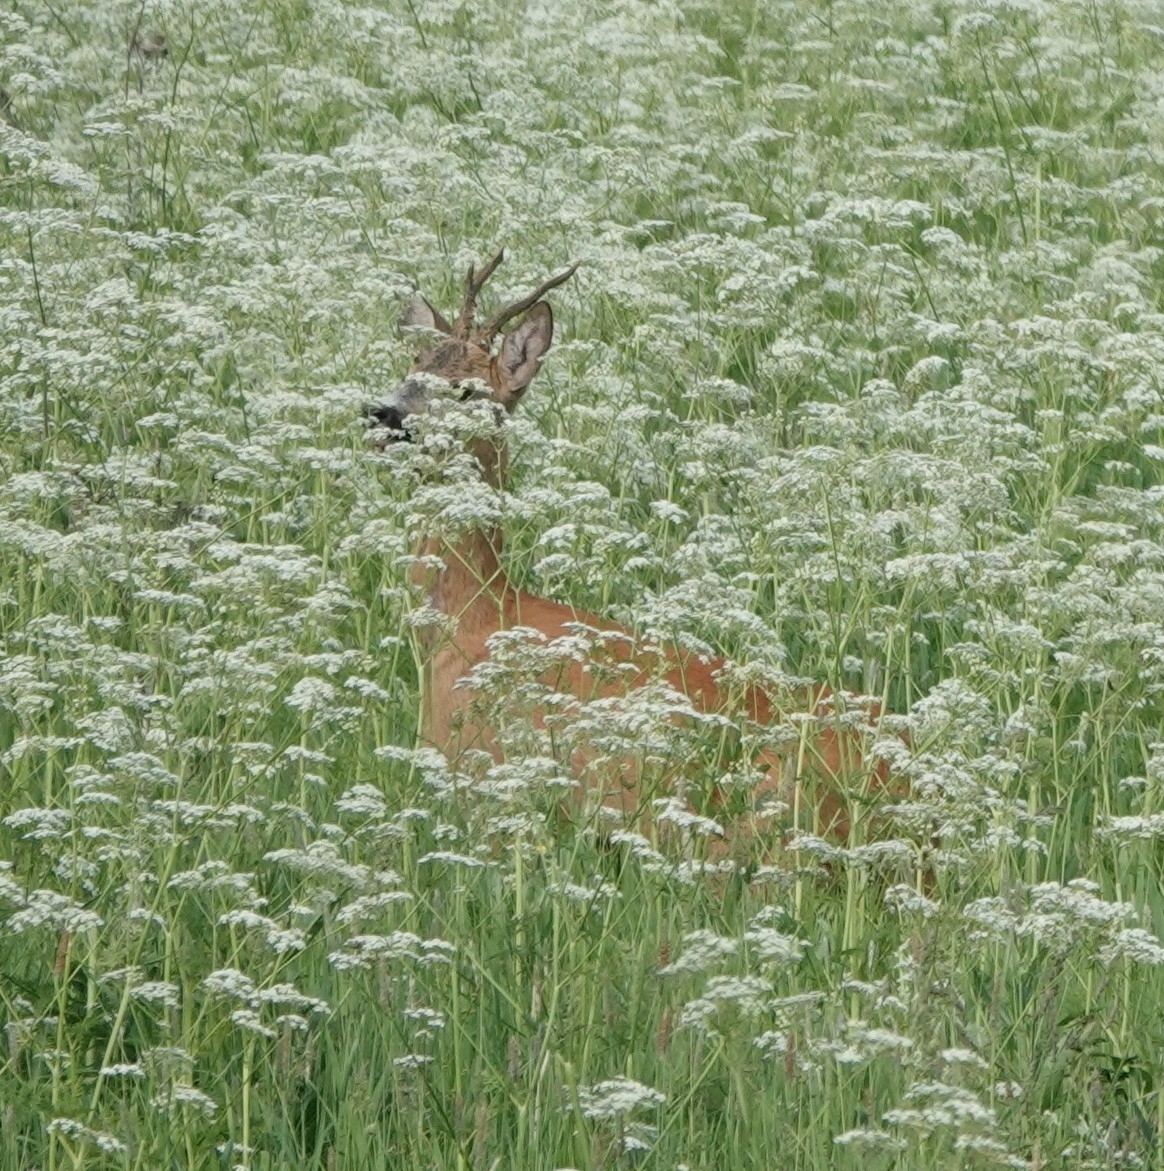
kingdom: Animalia
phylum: Chordata
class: Mammalia
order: Artiodactyla
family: Cervidae
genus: Capreolus
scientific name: Capreolus capreolus
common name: Western roe deer
